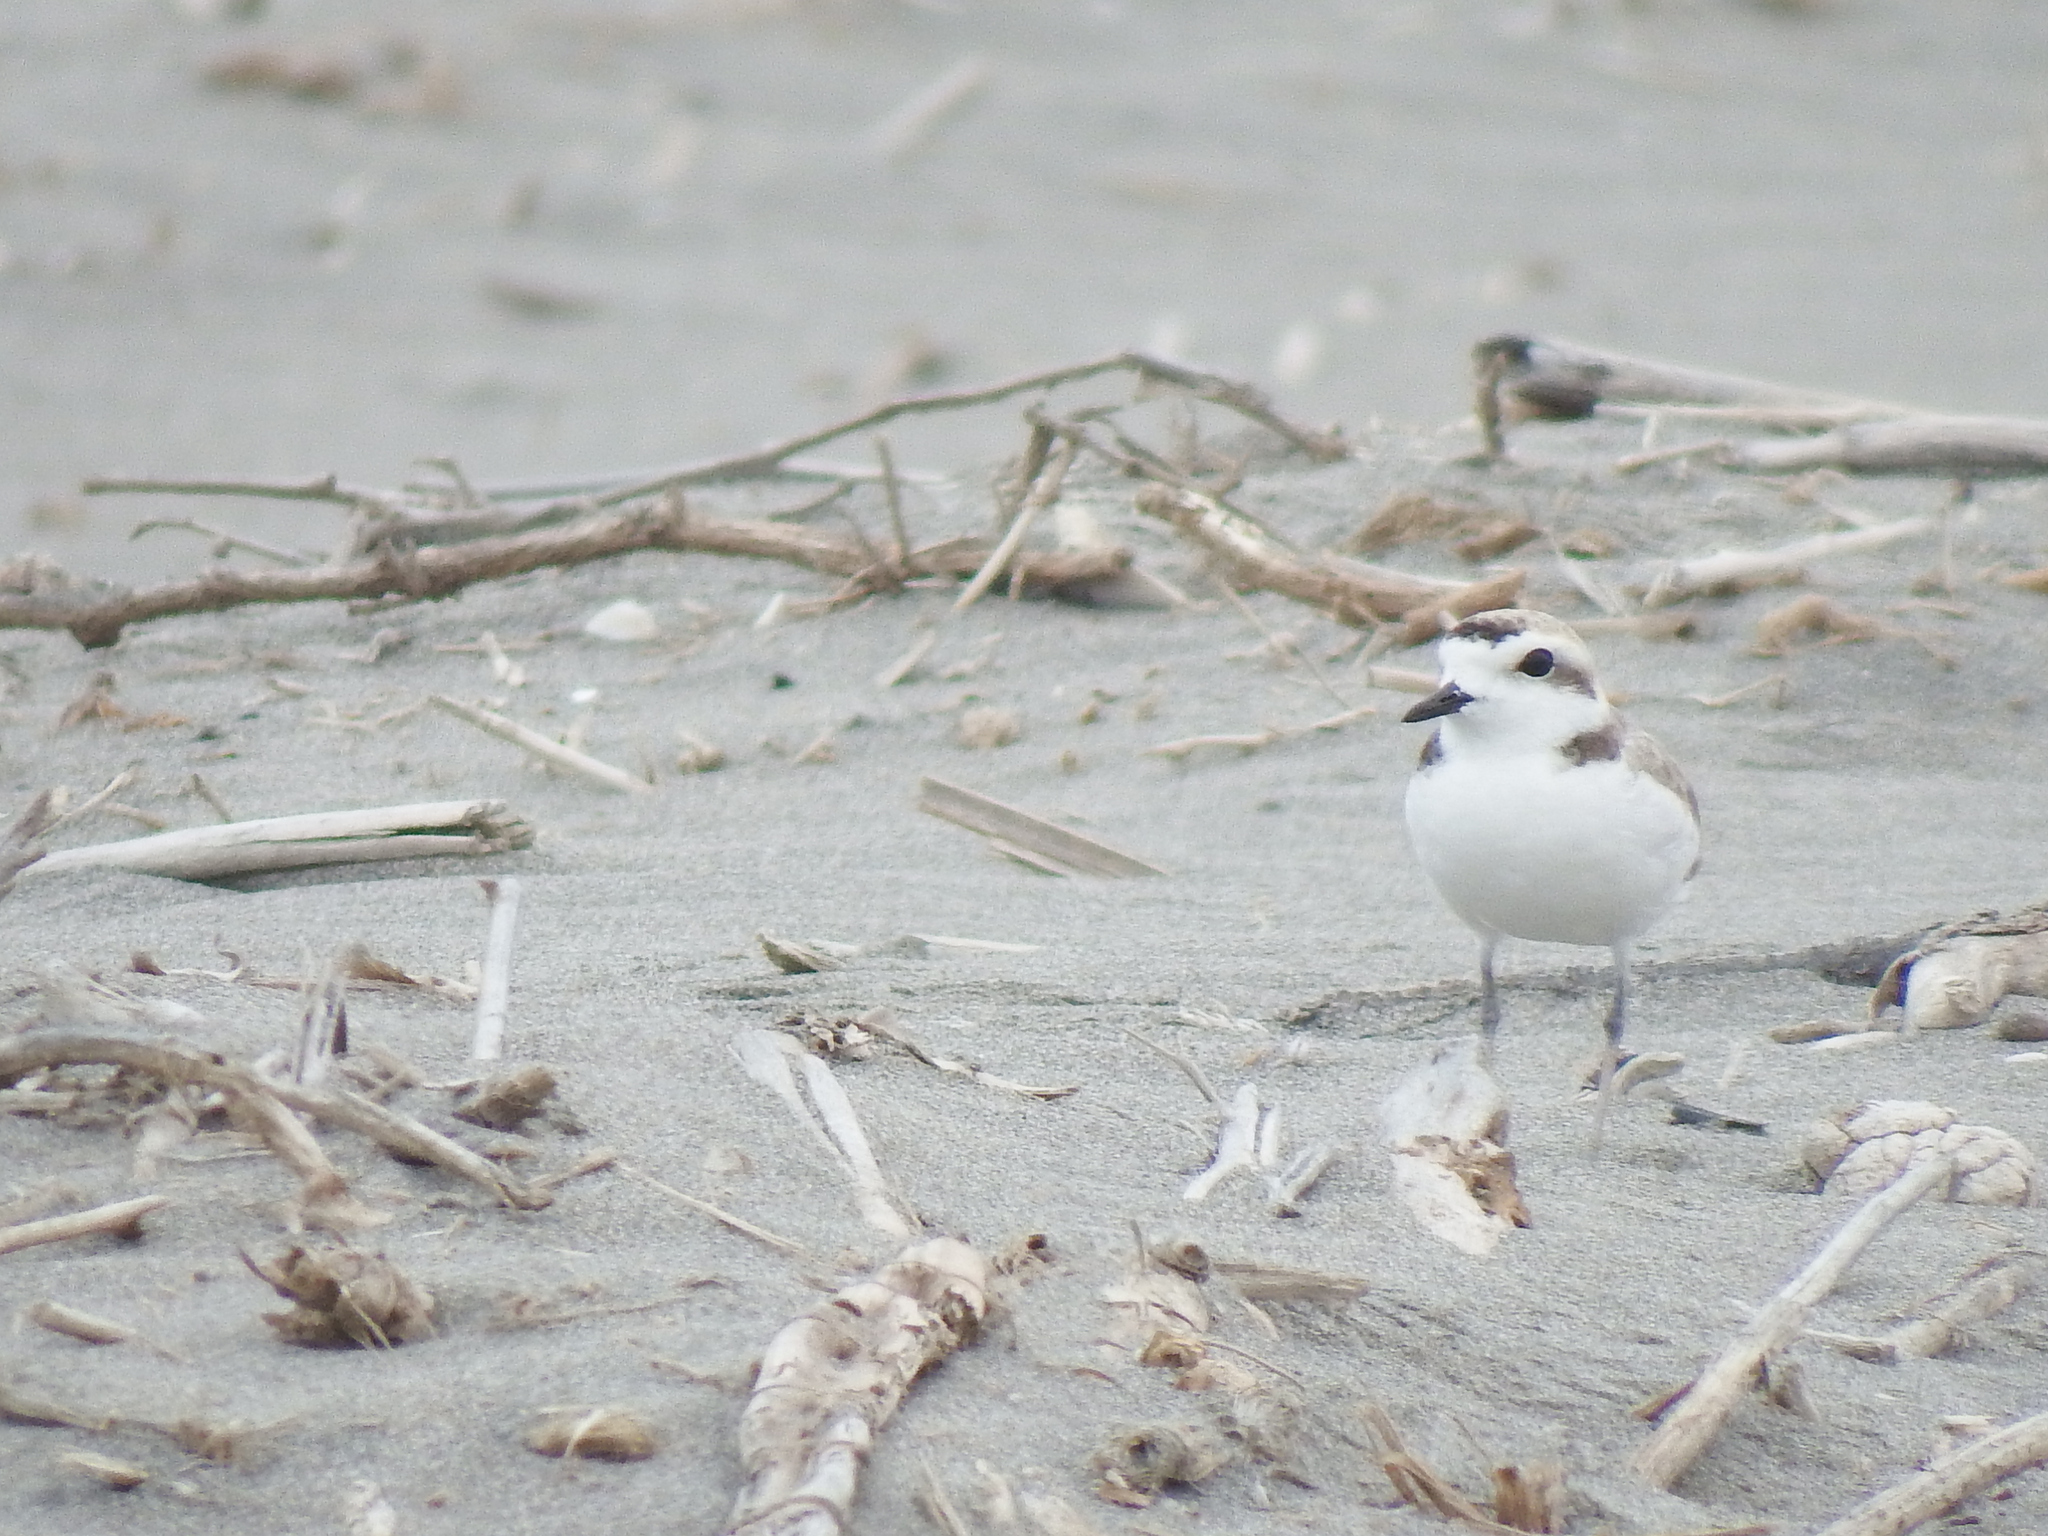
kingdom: Animalia
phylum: Chordata
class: Aves
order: Charadriiformes
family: Charadriidae
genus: Anarhynchus
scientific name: Anarhynchus
